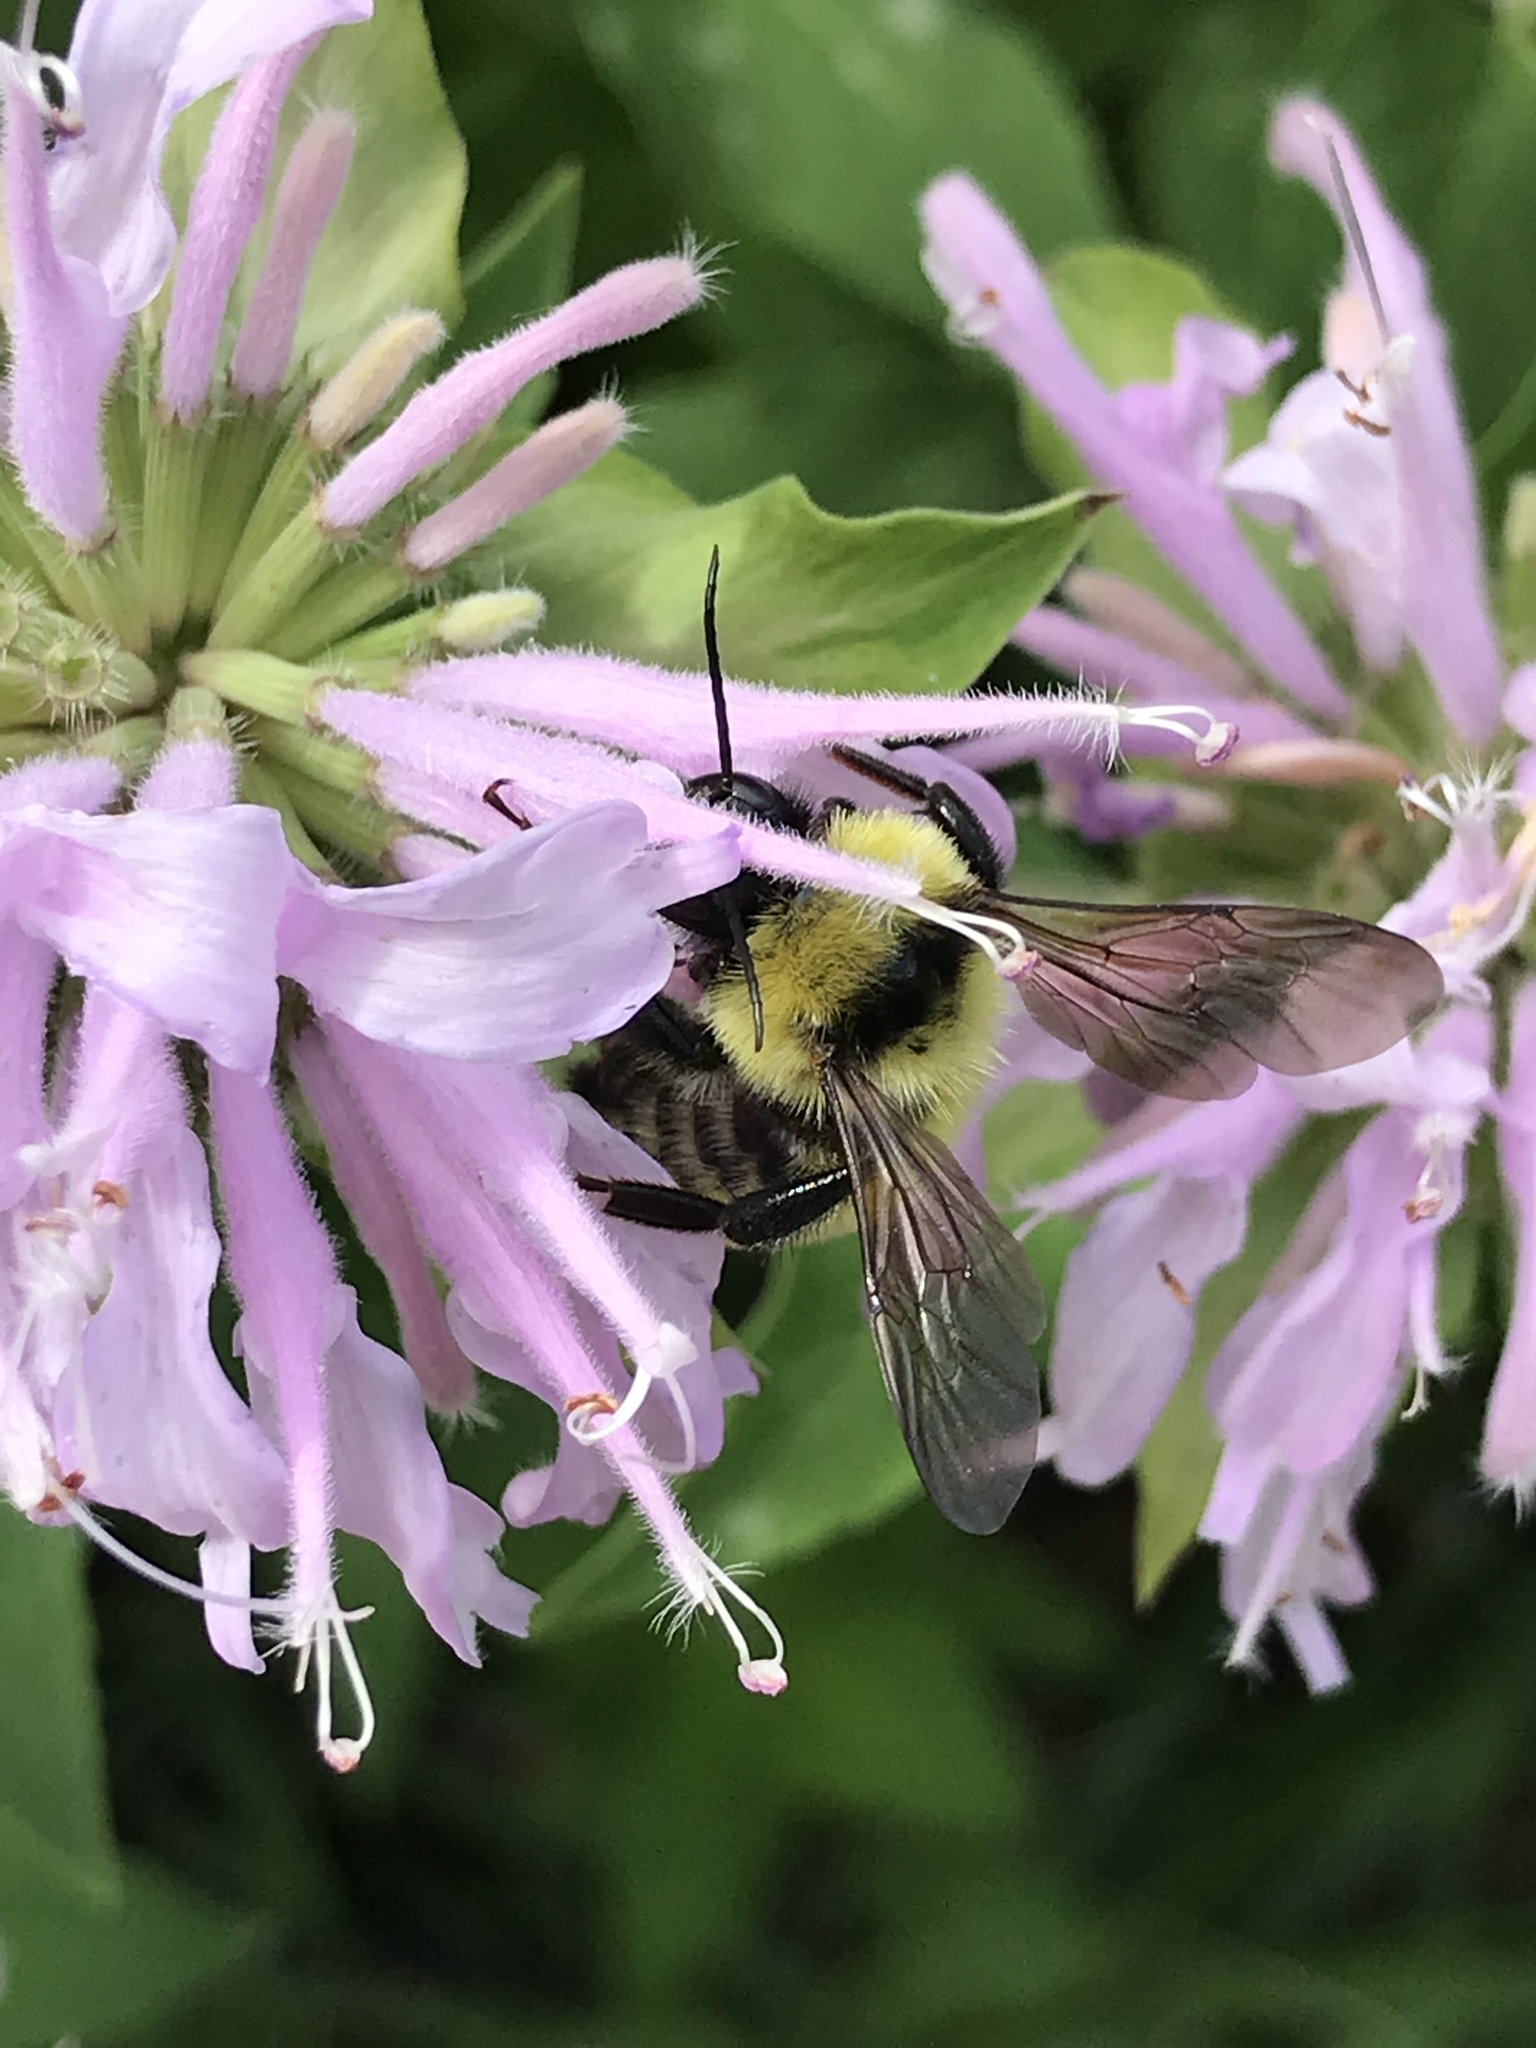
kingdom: Animalia
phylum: Arthropoda
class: Insecta
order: Hymenoptera
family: Apidae
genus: Bombus
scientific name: Bombus fervidus
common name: Yellow bumble bee
